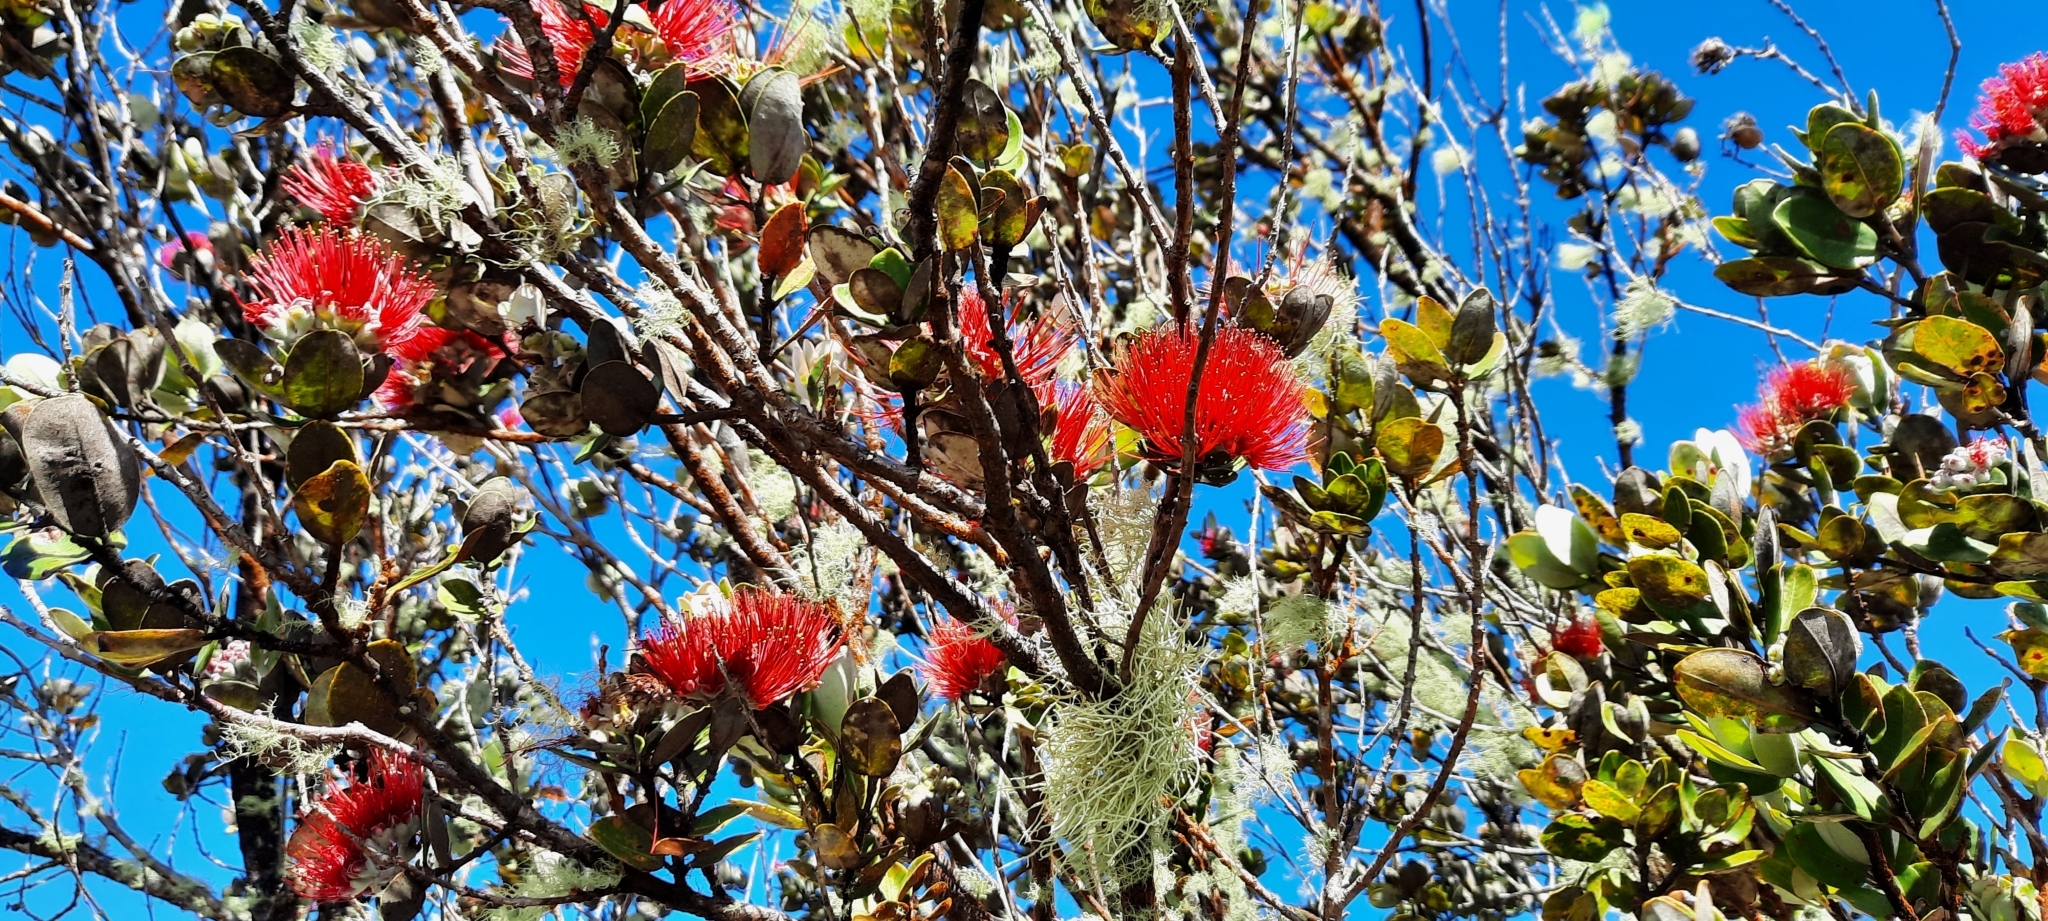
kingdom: Plantae
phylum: Tracheophyta
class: Magnoliopsida
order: Myrtales
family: Myrtaceae
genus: Metrosideros
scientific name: Metrosideros polymorpha
